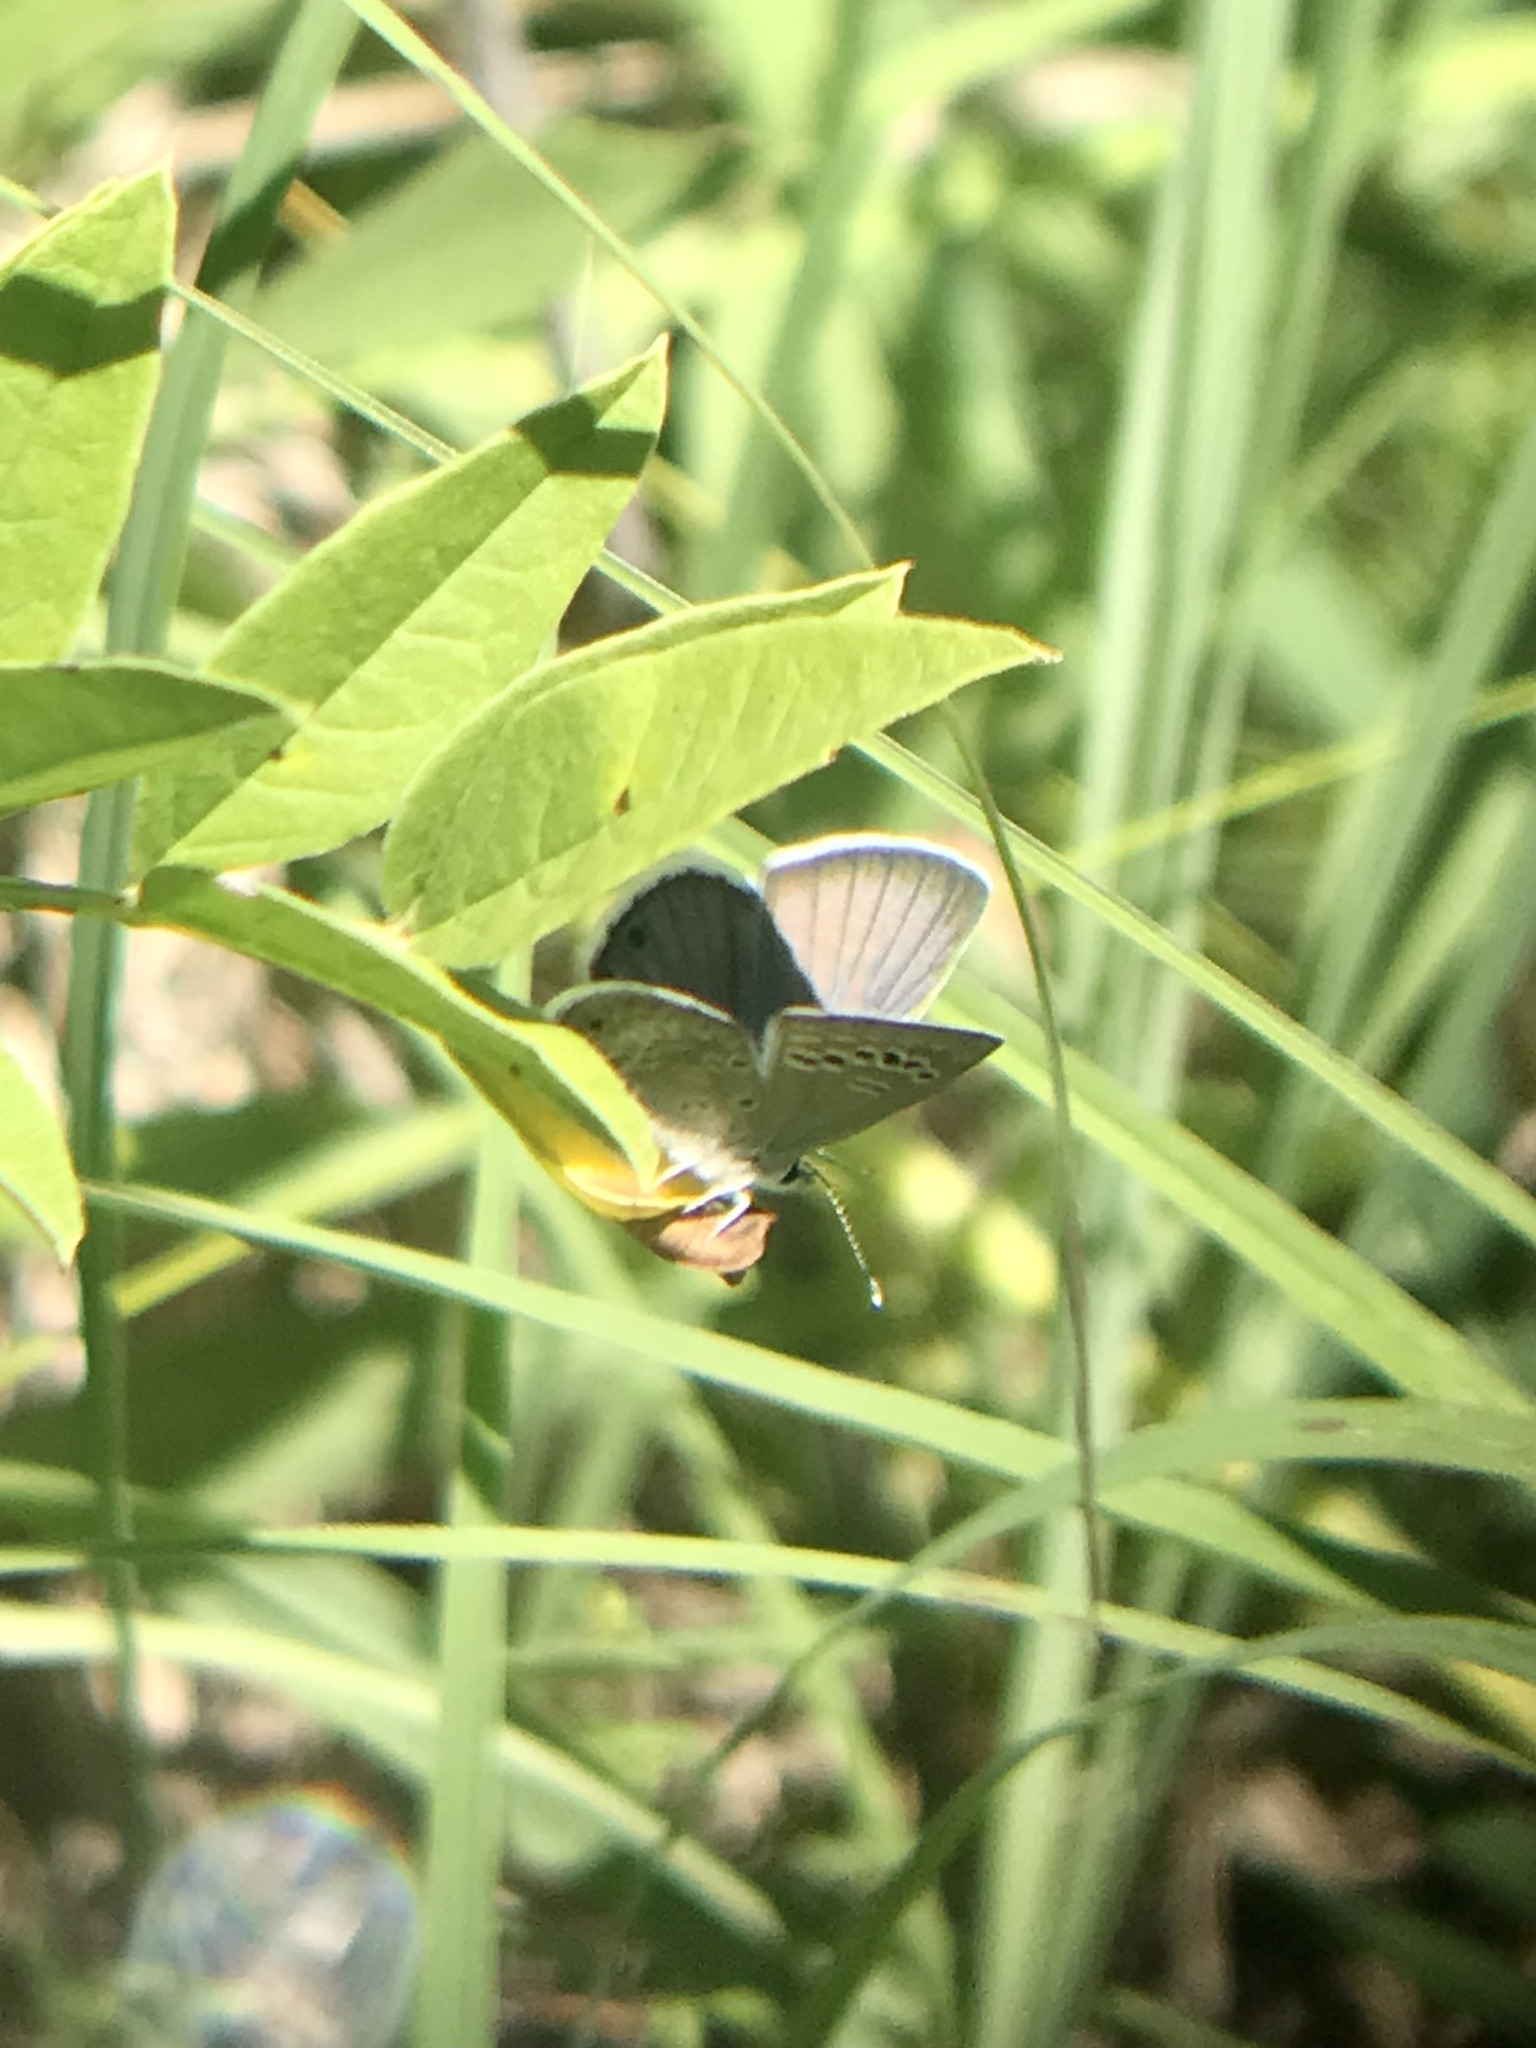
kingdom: Animalia
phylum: Arthropoda
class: Insecta
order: Lepidoptera
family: Lycaenidae
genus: Echinargus
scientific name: Echinargus isola
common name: Reakirt's blue
